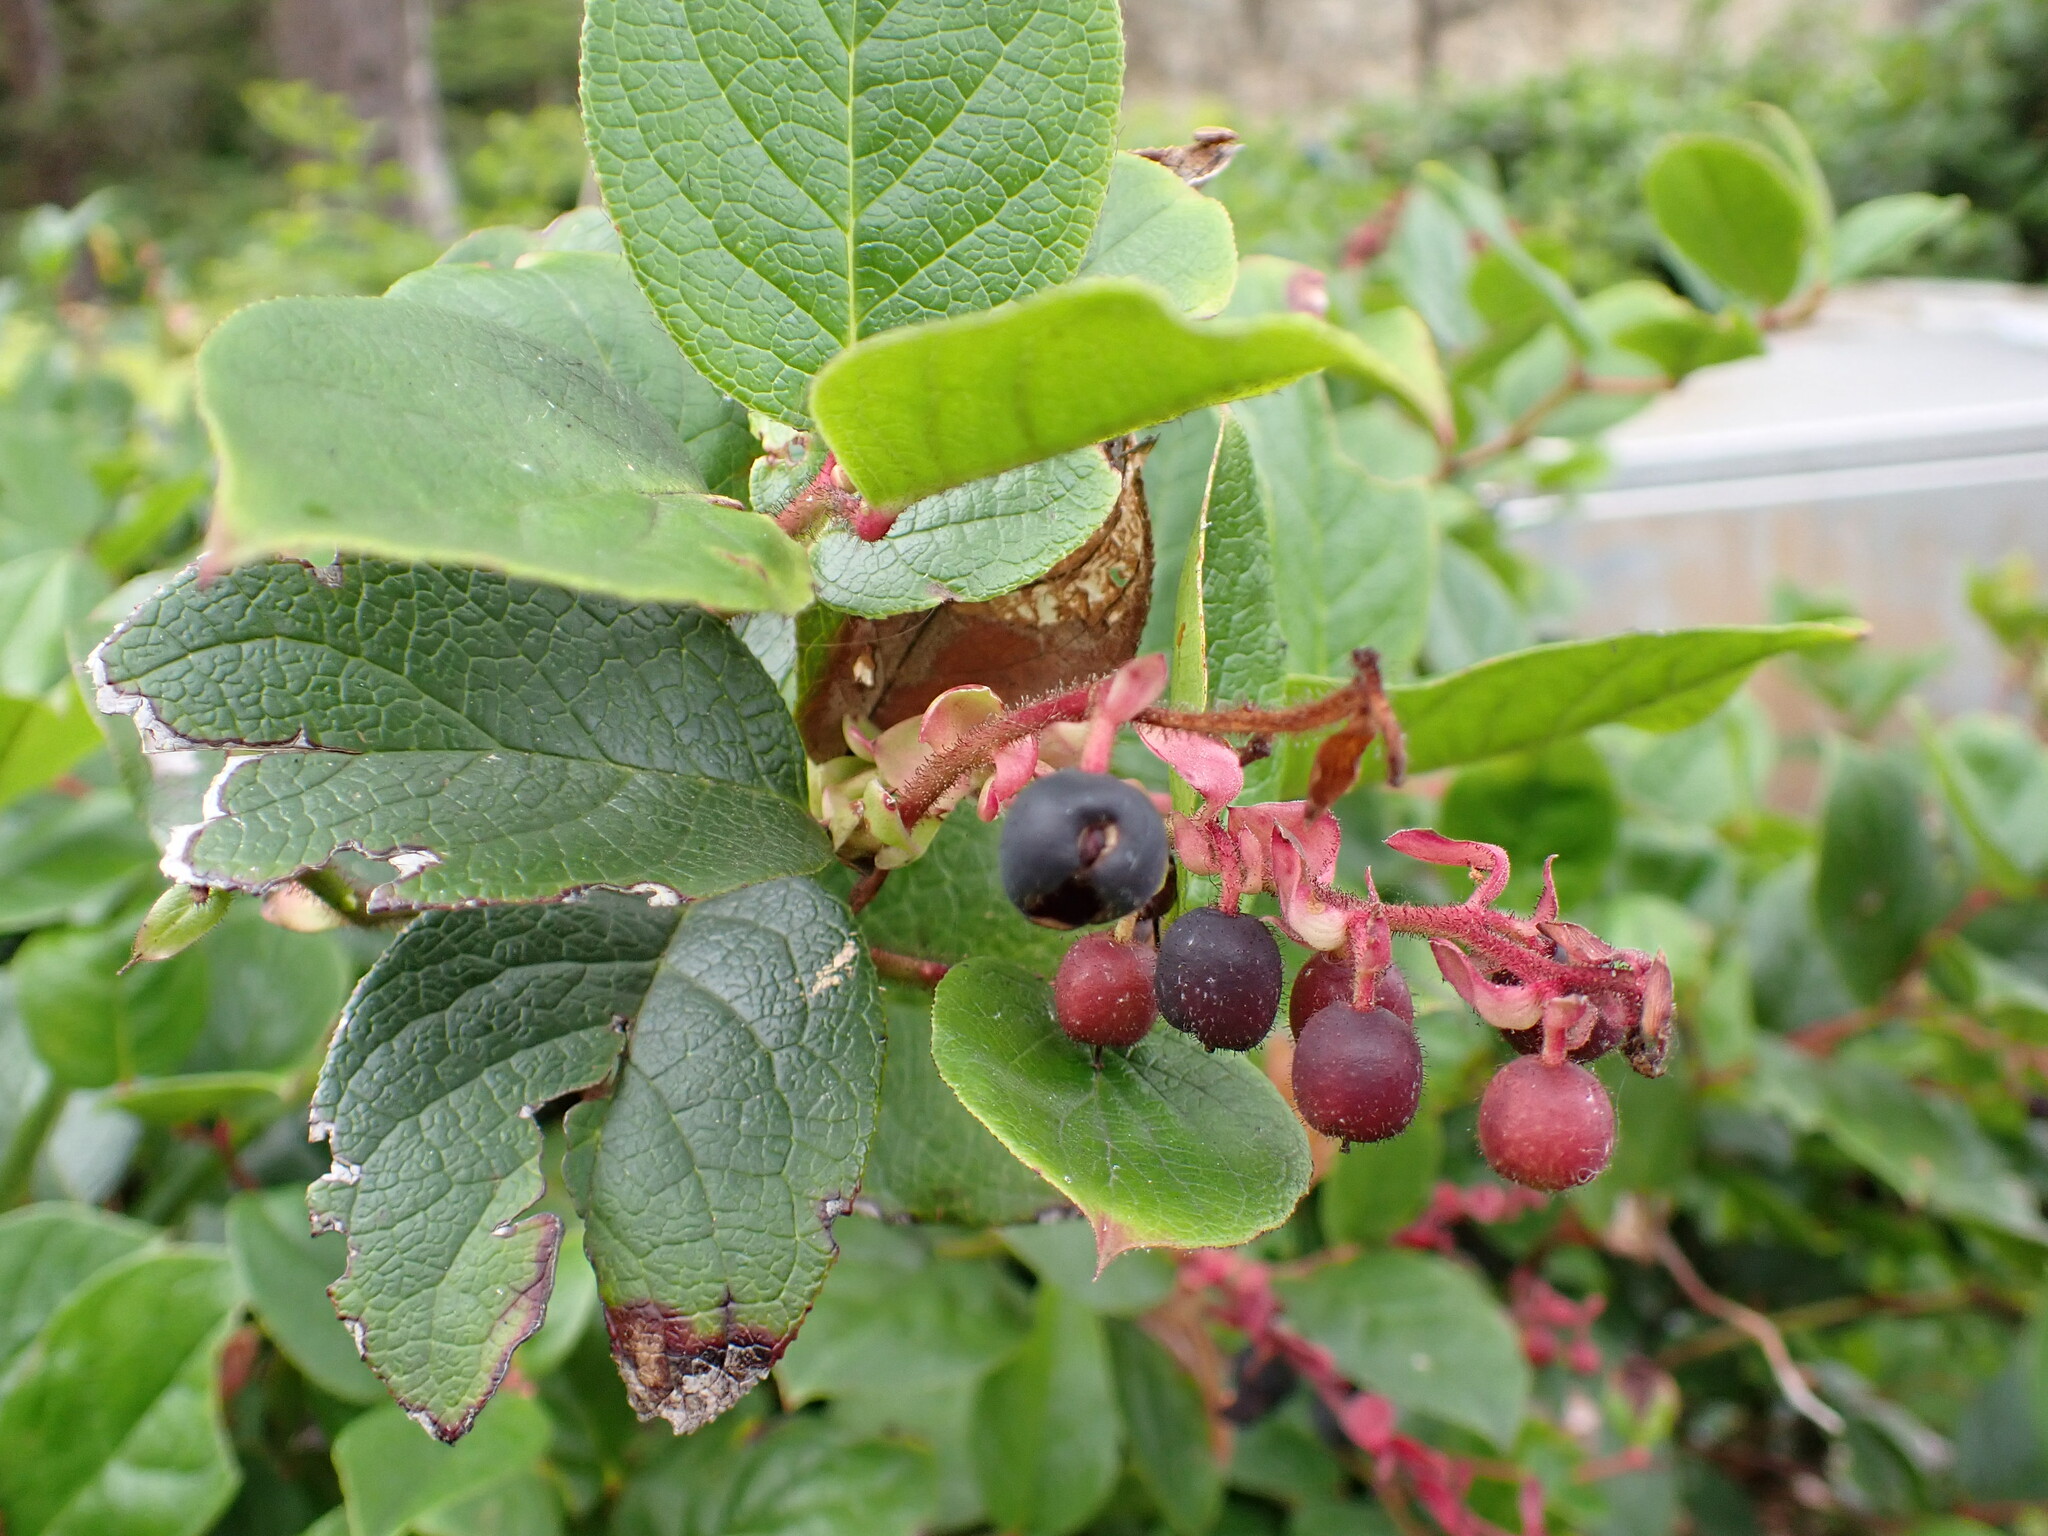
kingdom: Plantae
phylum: Tracheophyta
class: Magnoliopsida
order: Ericales
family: Ericaceae
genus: Gaultheria
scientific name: Gaultheria shallon
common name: Shallon
